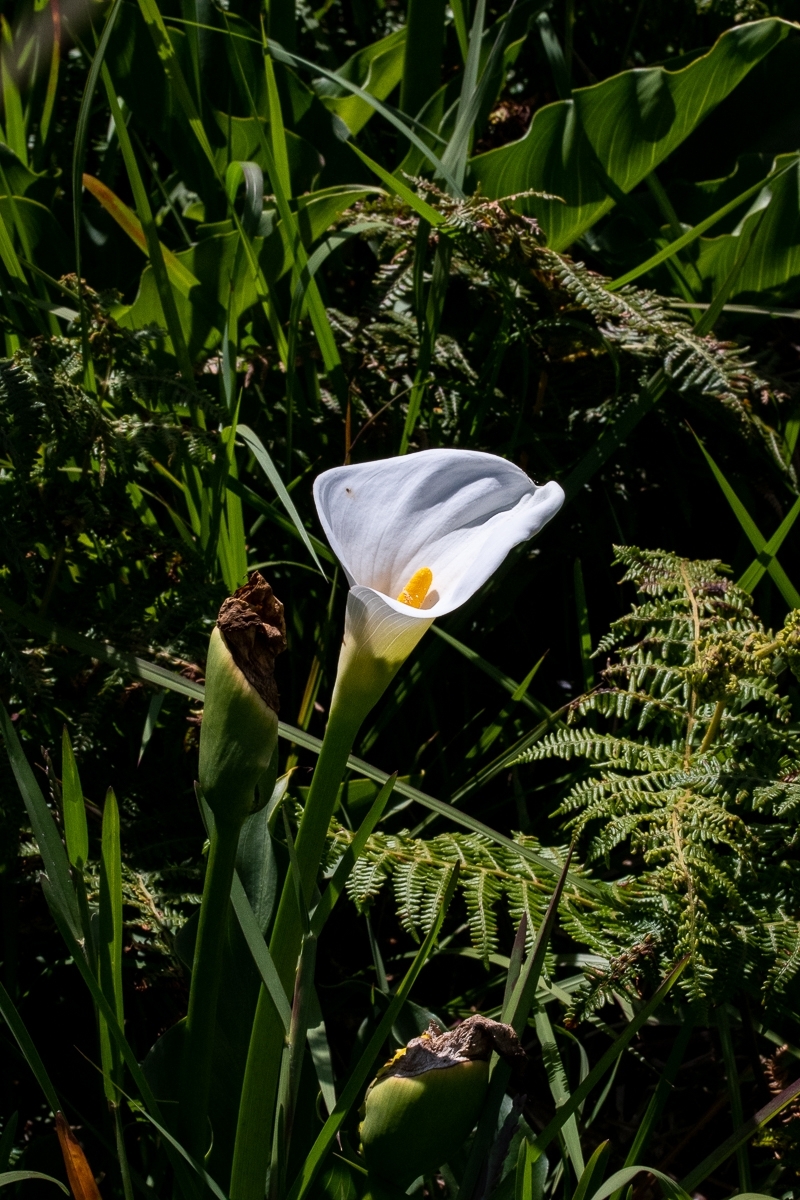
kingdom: Plantae
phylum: Tracheophyta
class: Liliopsida
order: Alismatales
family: Araceae
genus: Zantedeschia
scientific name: Zantedeschia aethiopica
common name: Altar-lily
